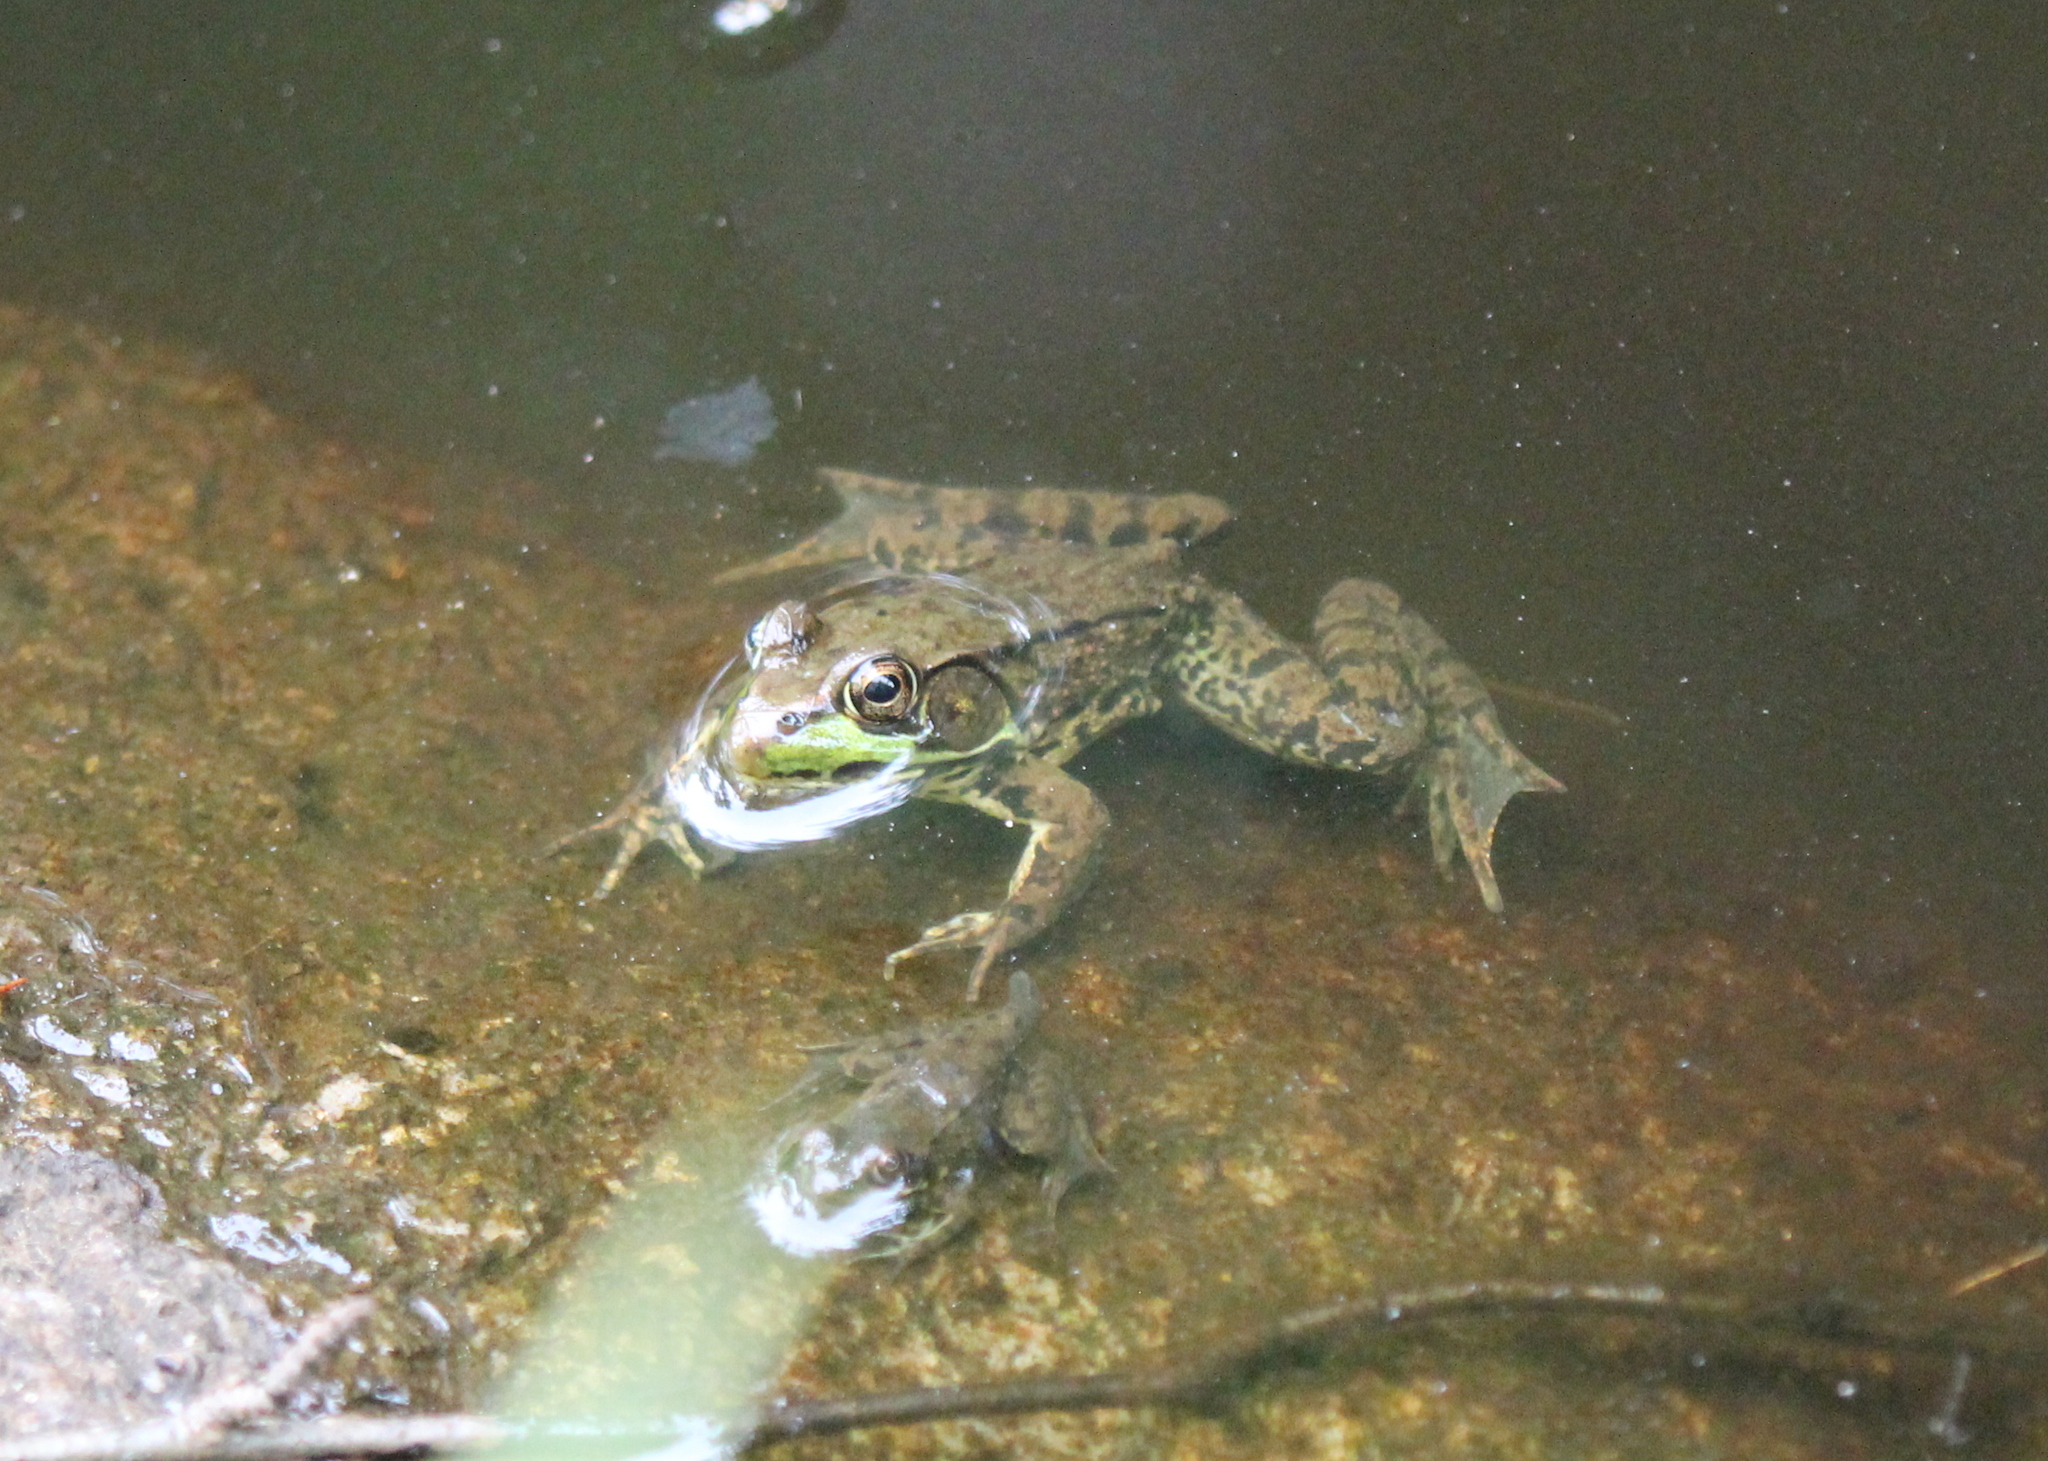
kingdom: Animalia
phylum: Chordata
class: Amphibia
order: Anura
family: Ranidae
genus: Lithobates
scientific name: Lithobates clamitans
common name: Green frog
